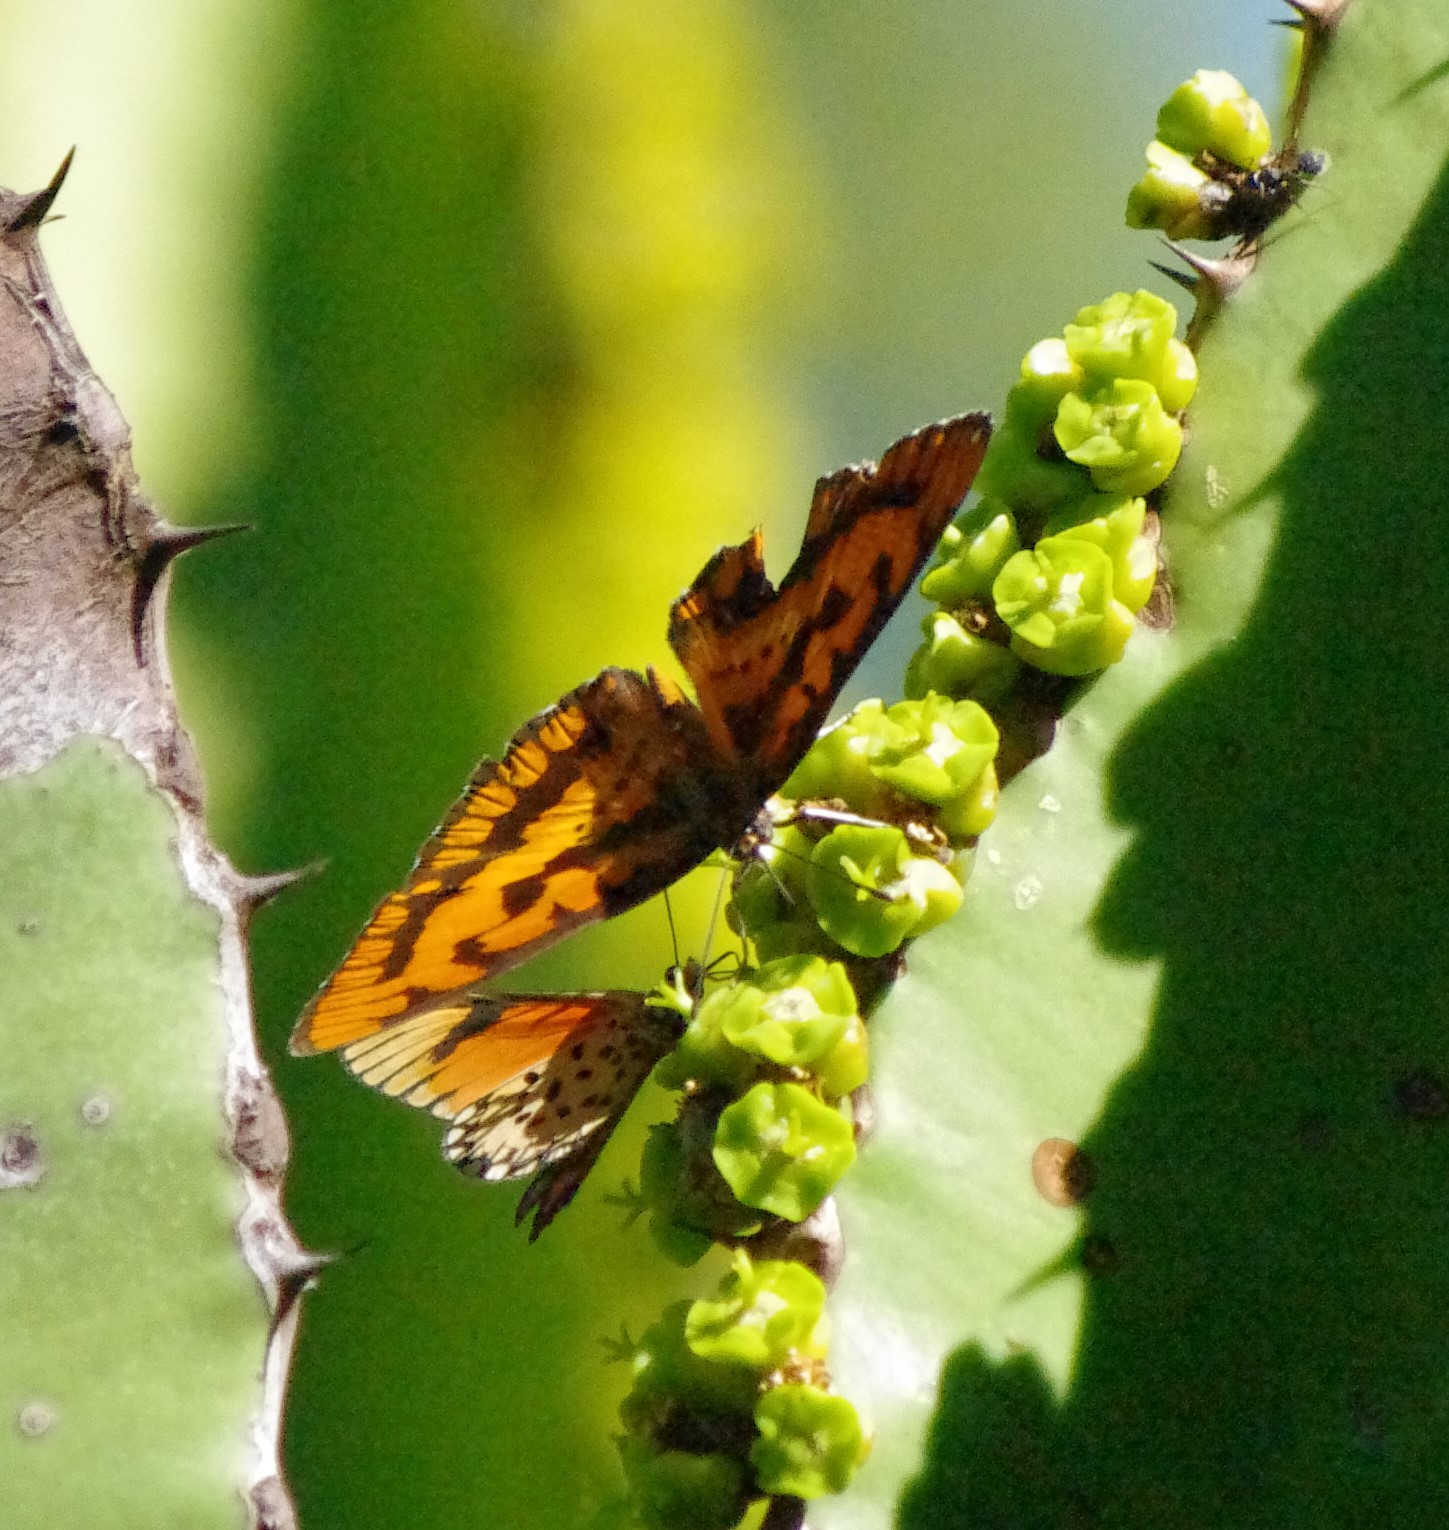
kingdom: Animalia
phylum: Arthropoda
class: Insecta
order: Lepidoptera
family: Nymphalidae
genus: Byblia
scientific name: Byblia ilithyia
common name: Spotted joker
